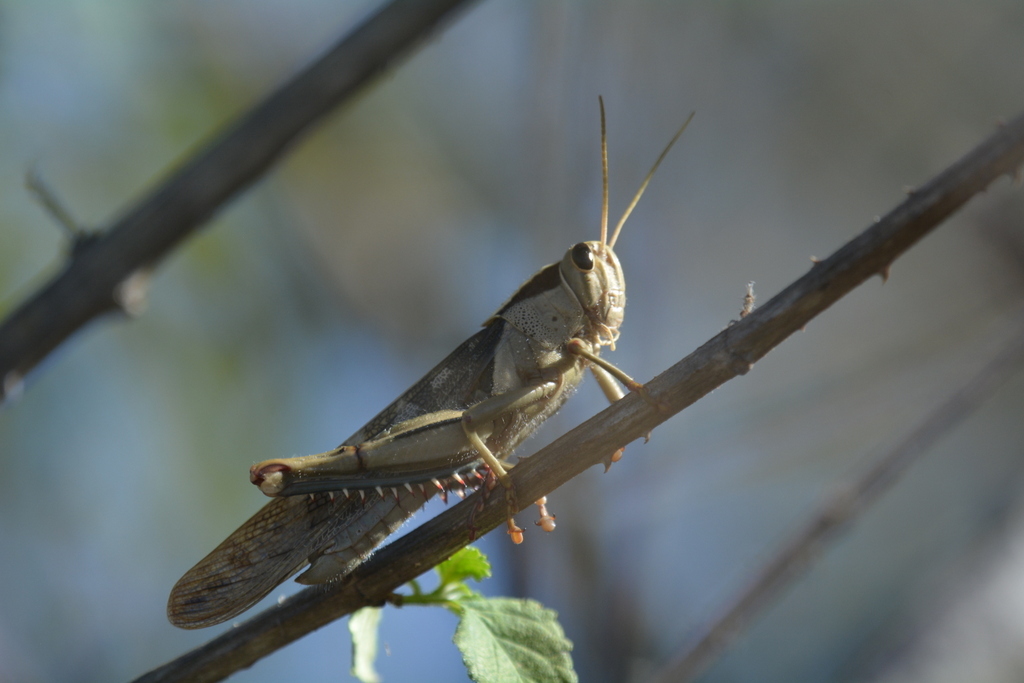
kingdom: Animalia
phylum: Arthropoda
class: Insecta
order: Orthoptera
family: Acrididae
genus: Acanthacris
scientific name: Acanthacris ruficornis
